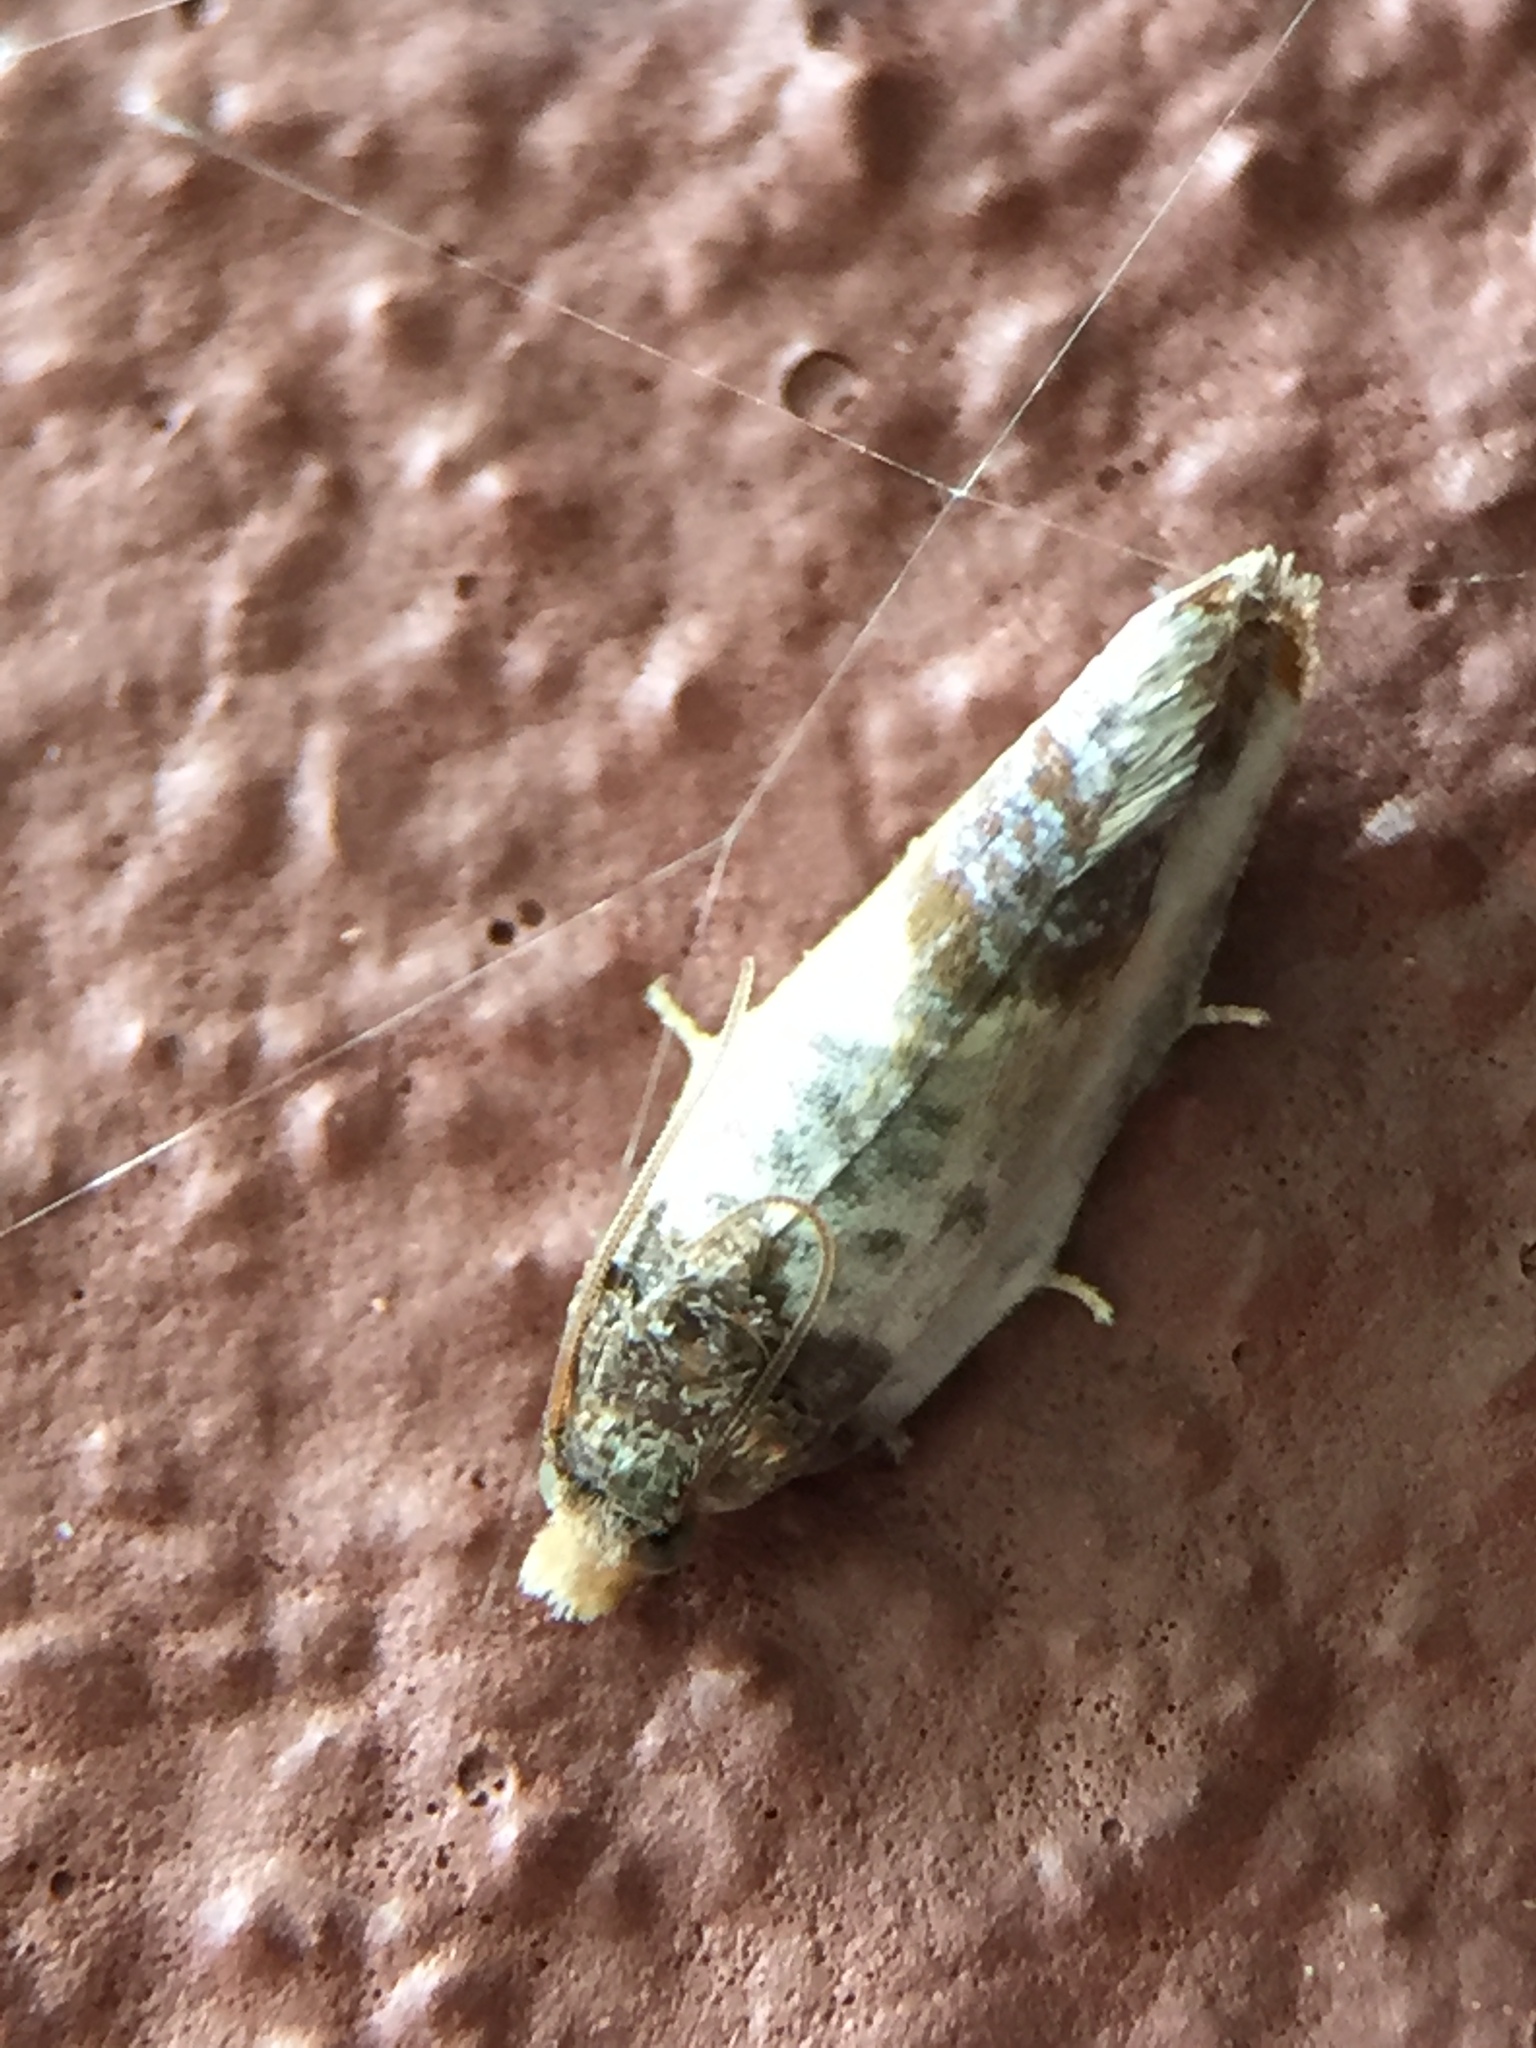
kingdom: Animalia
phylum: Arthropoda
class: Insecta
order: Lepidoptera
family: Tortricidae
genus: Argyroploce
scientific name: Argyroploce chlorosaris
